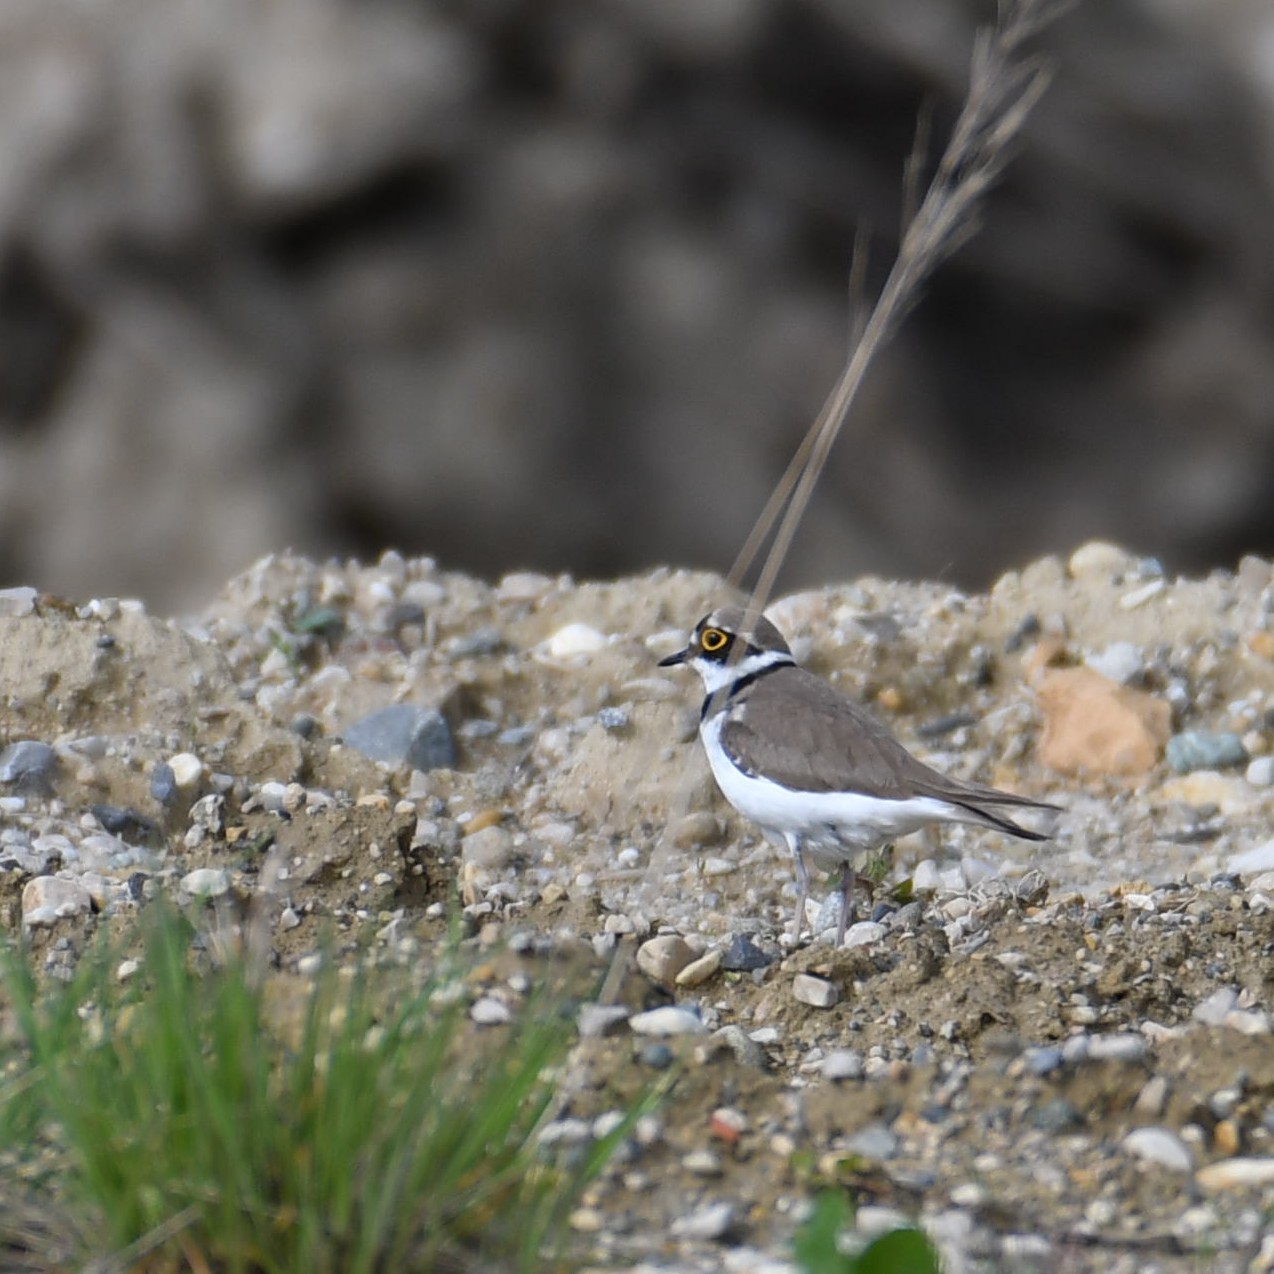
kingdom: Animalia
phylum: Chordata
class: Aves
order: Charadriiformes
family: Charadriidae
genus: Charadrius
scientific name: Charadrius dubius
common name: Little ringed plover
